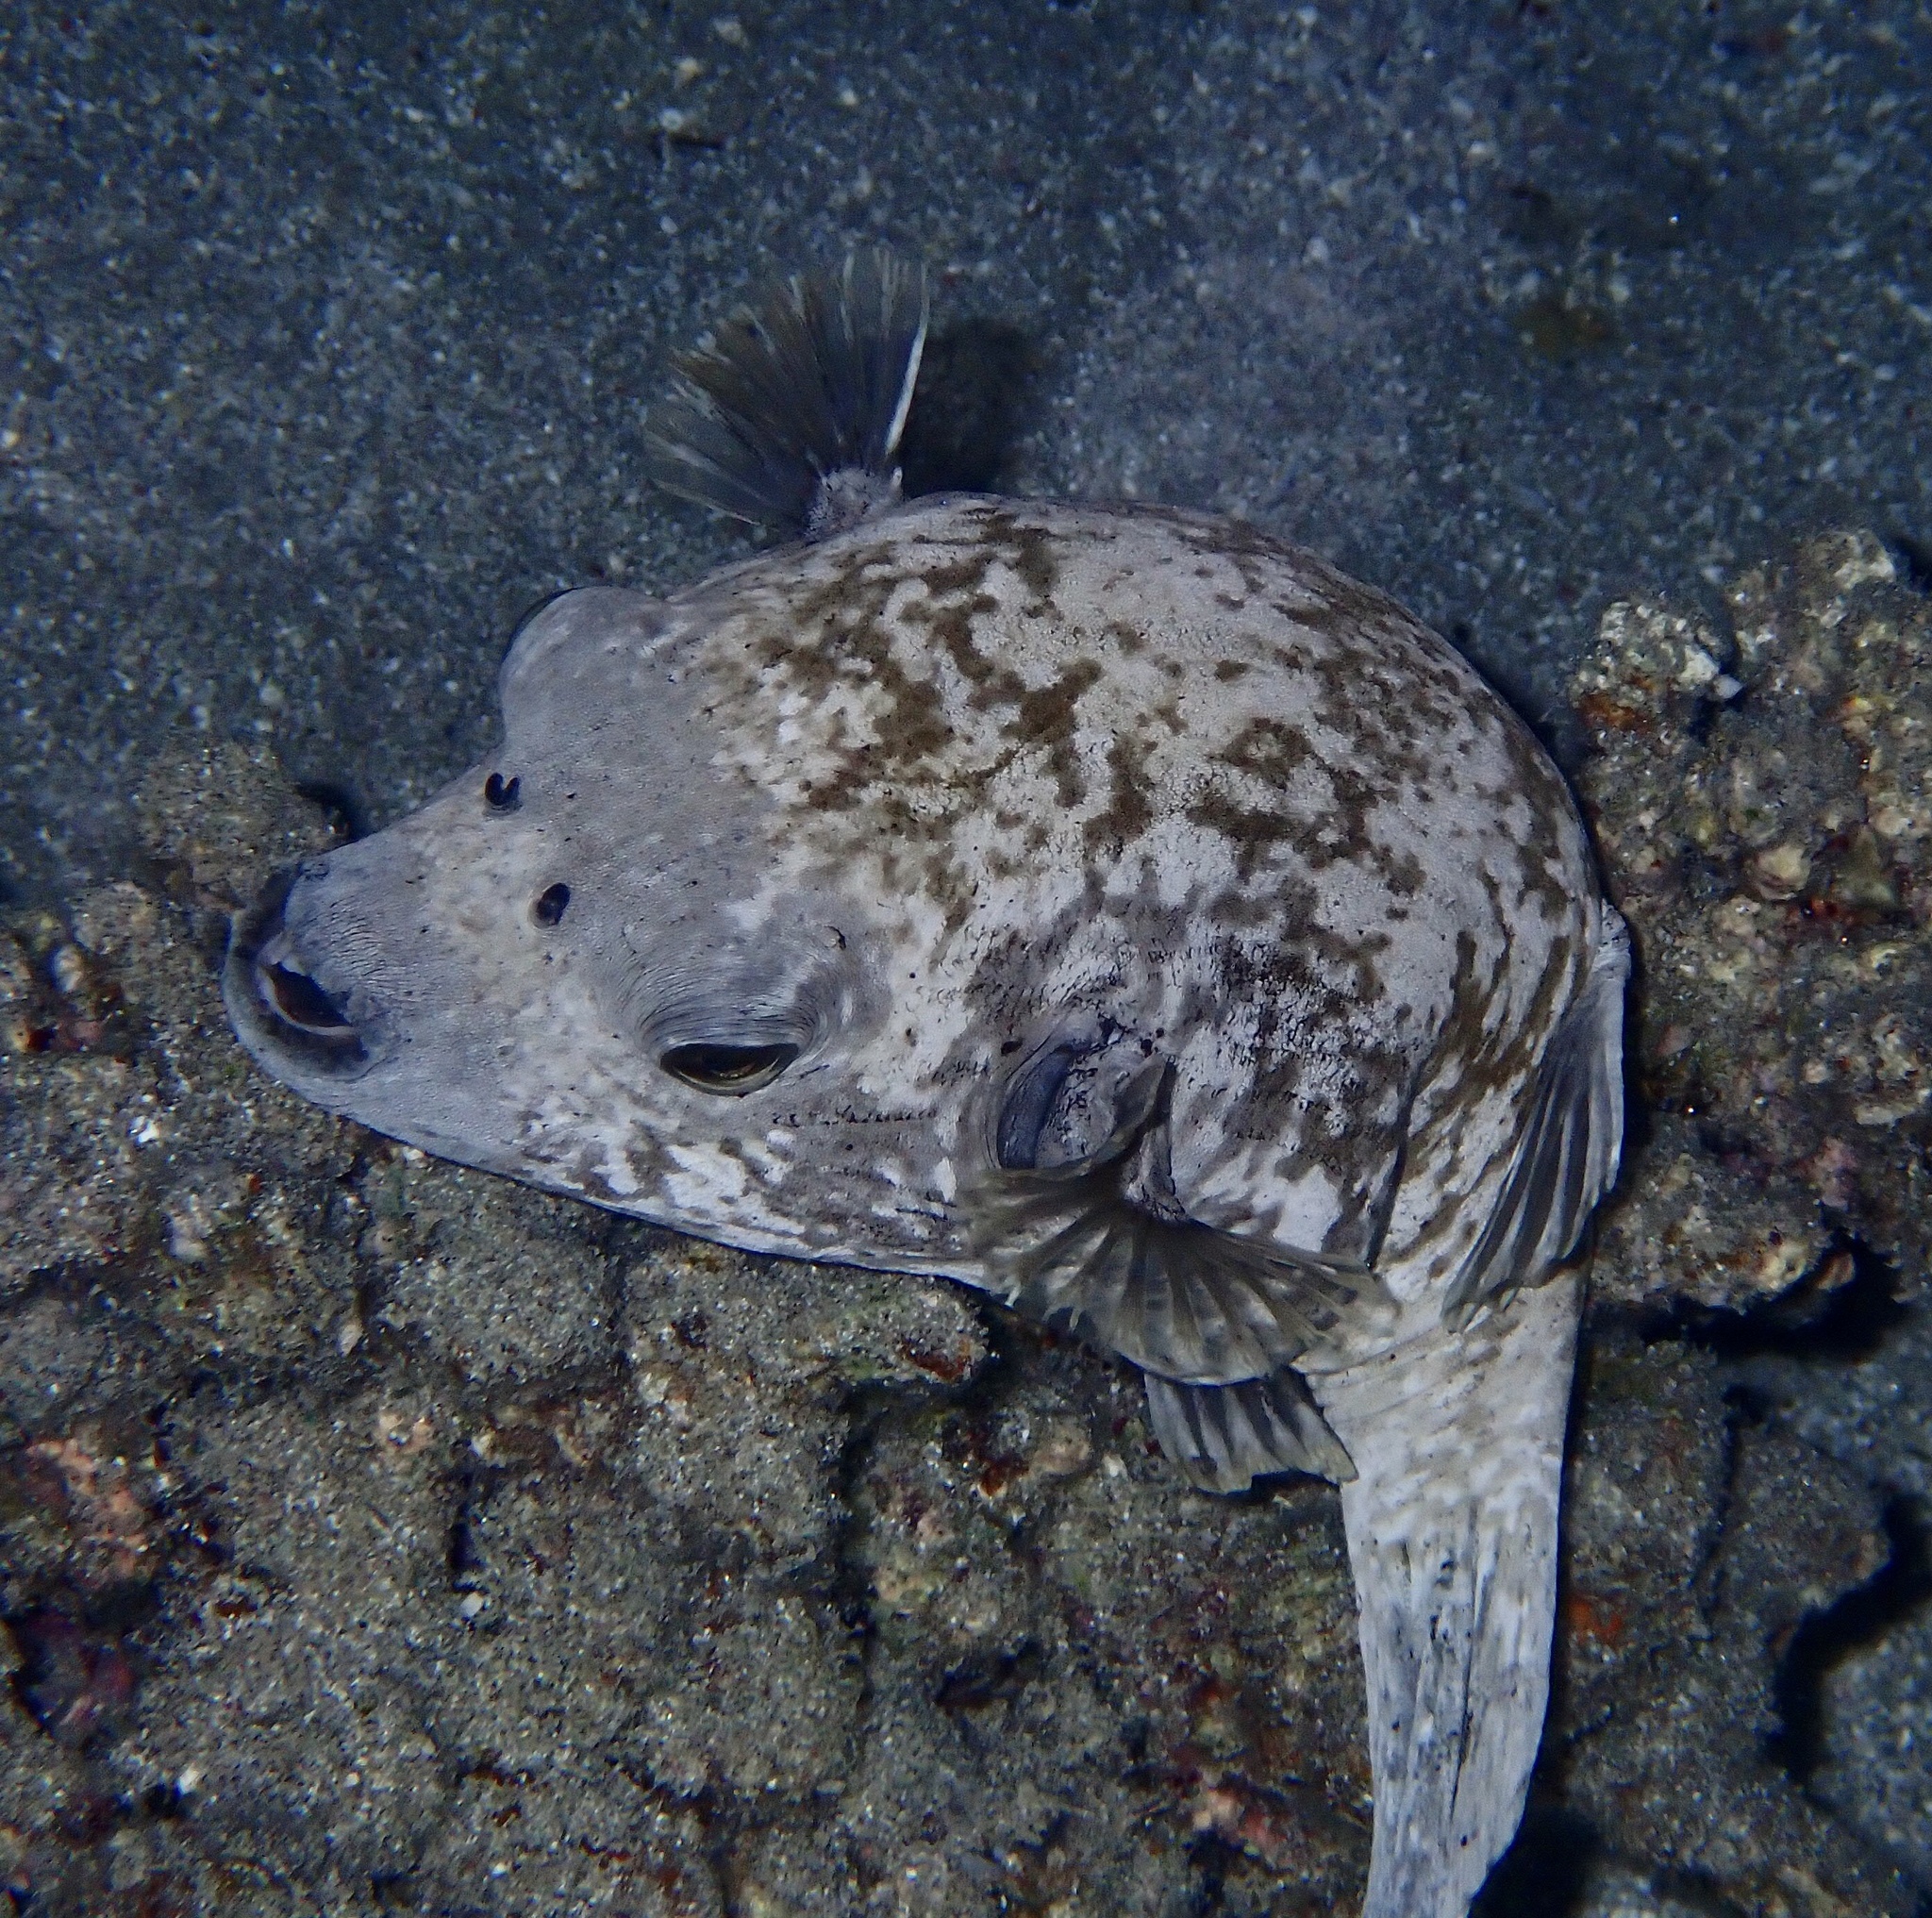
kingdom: Animalia
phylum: Chordata
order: Tetraodontiformes
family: Tetraodontidae
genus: Arothron
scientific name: Arothron diadematus
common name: Masked puffer
